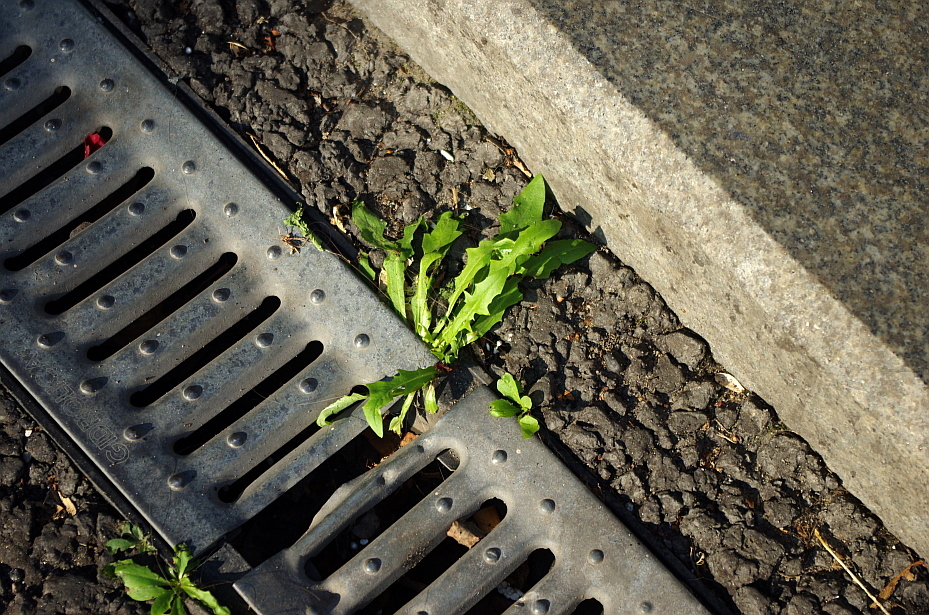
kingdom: Plantae
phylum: Tracheophyta
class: Magnoliopsida
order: Asterales
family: Asteraceae
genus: Taraxacum
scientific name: Taraxacum officinale
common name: Common dandelion
